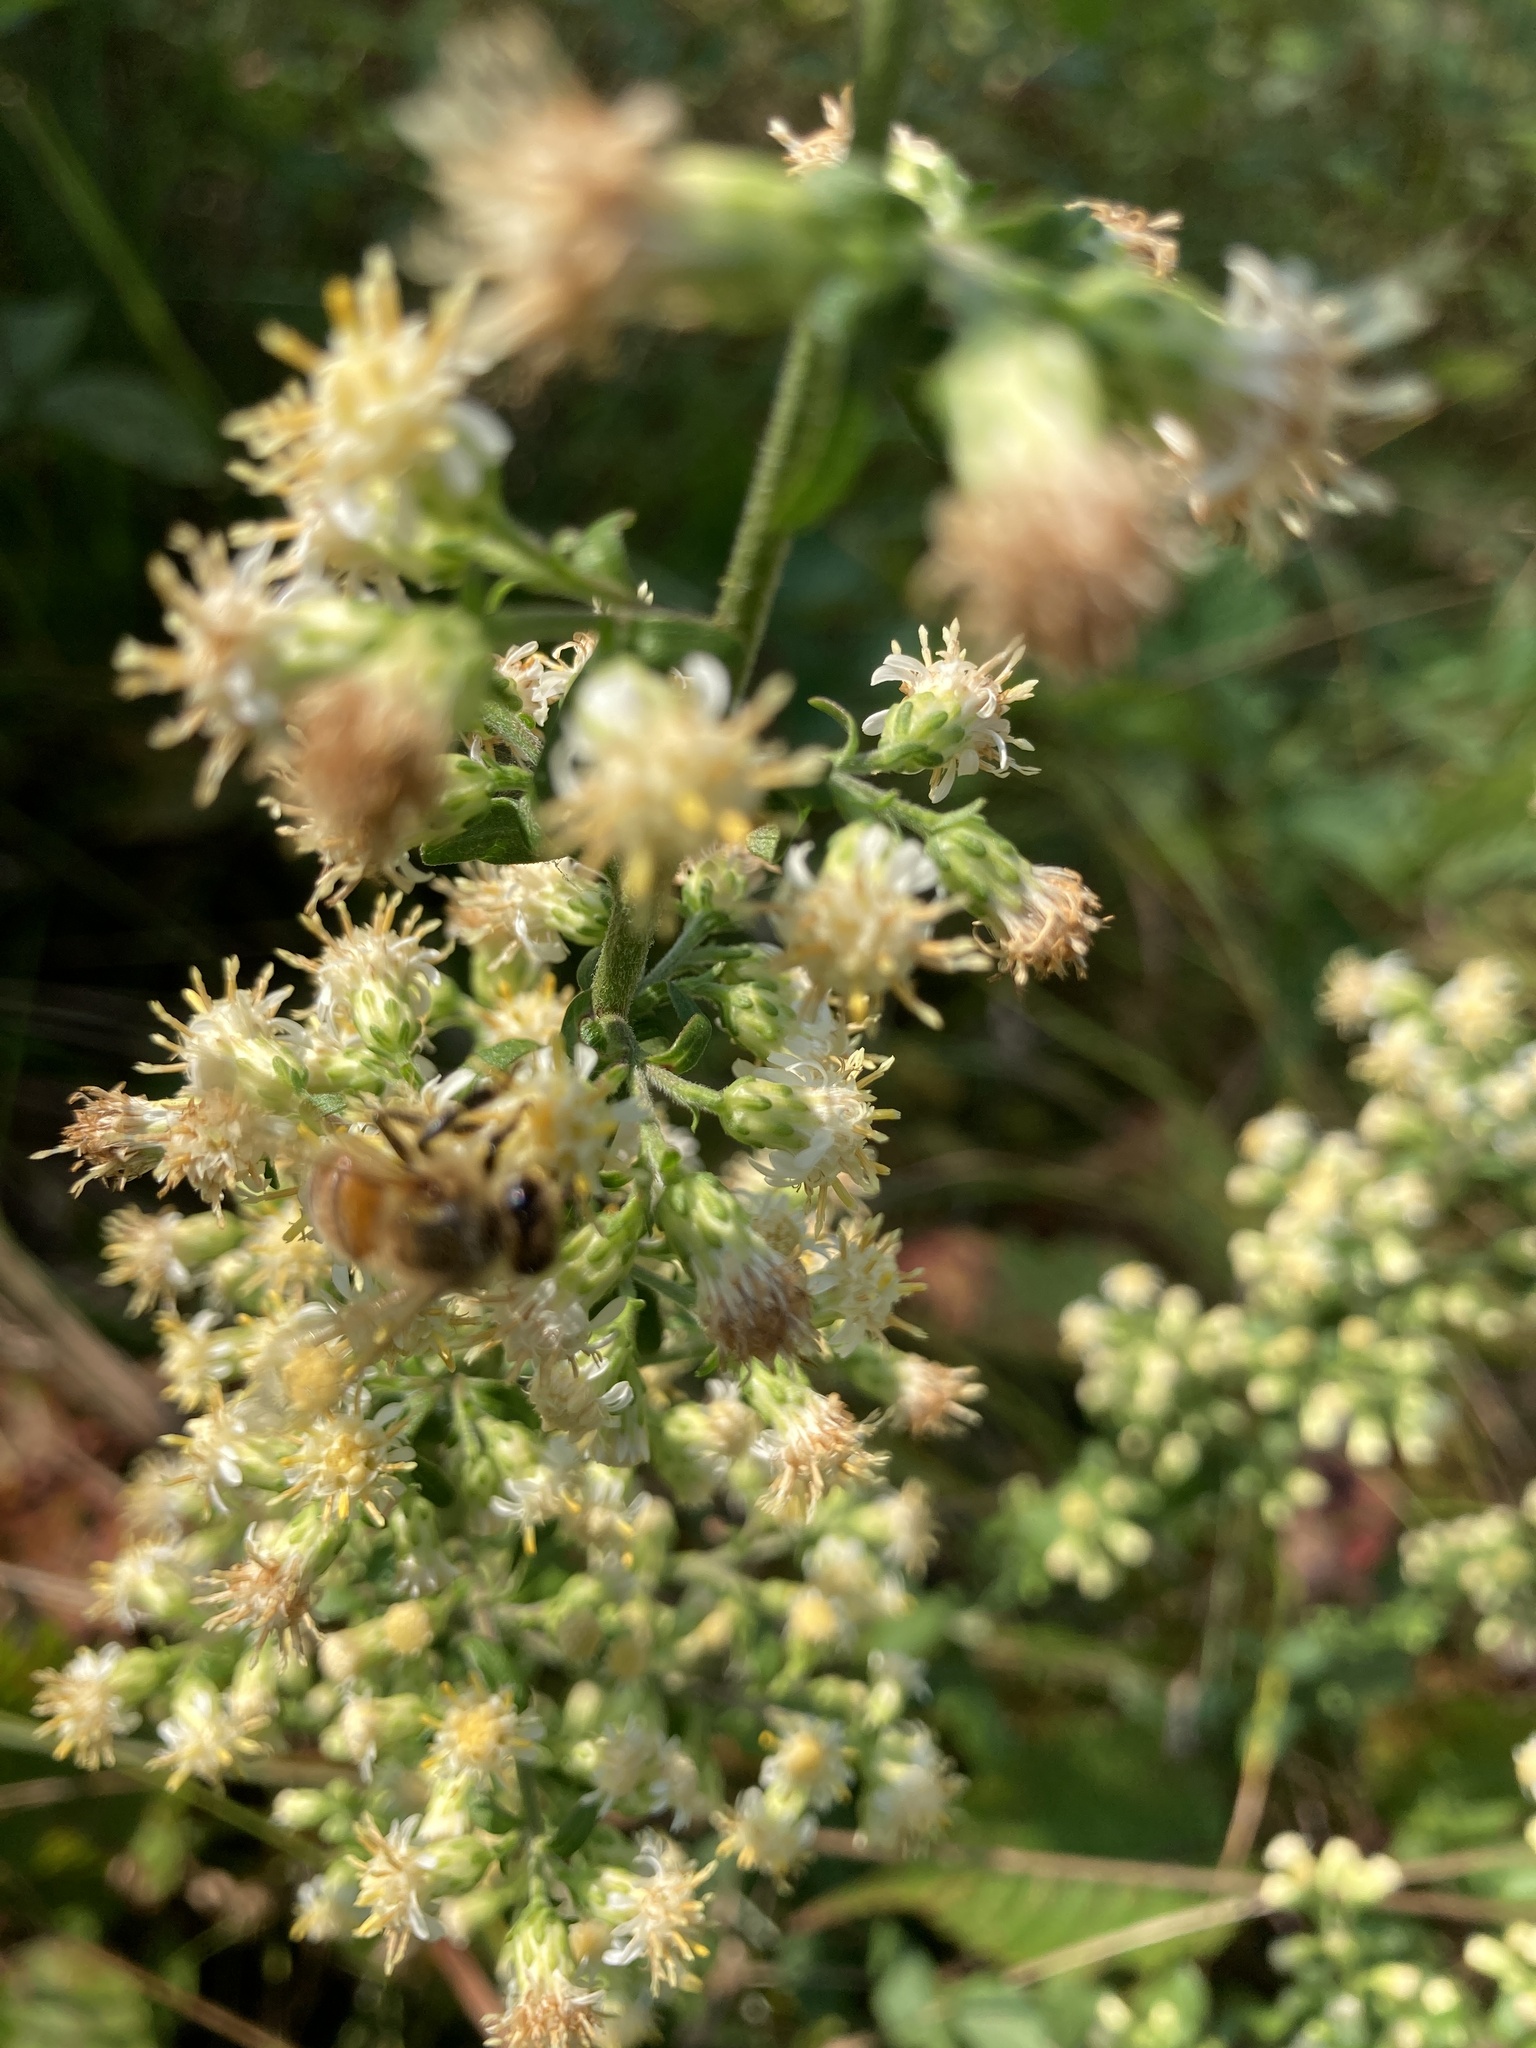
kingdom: Plantae
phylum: Tracheophyta
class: Magnoliopsida
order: Asterales
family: Asteraceae
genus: Solidago
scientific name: Solidago bicolor
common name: Silverrod
